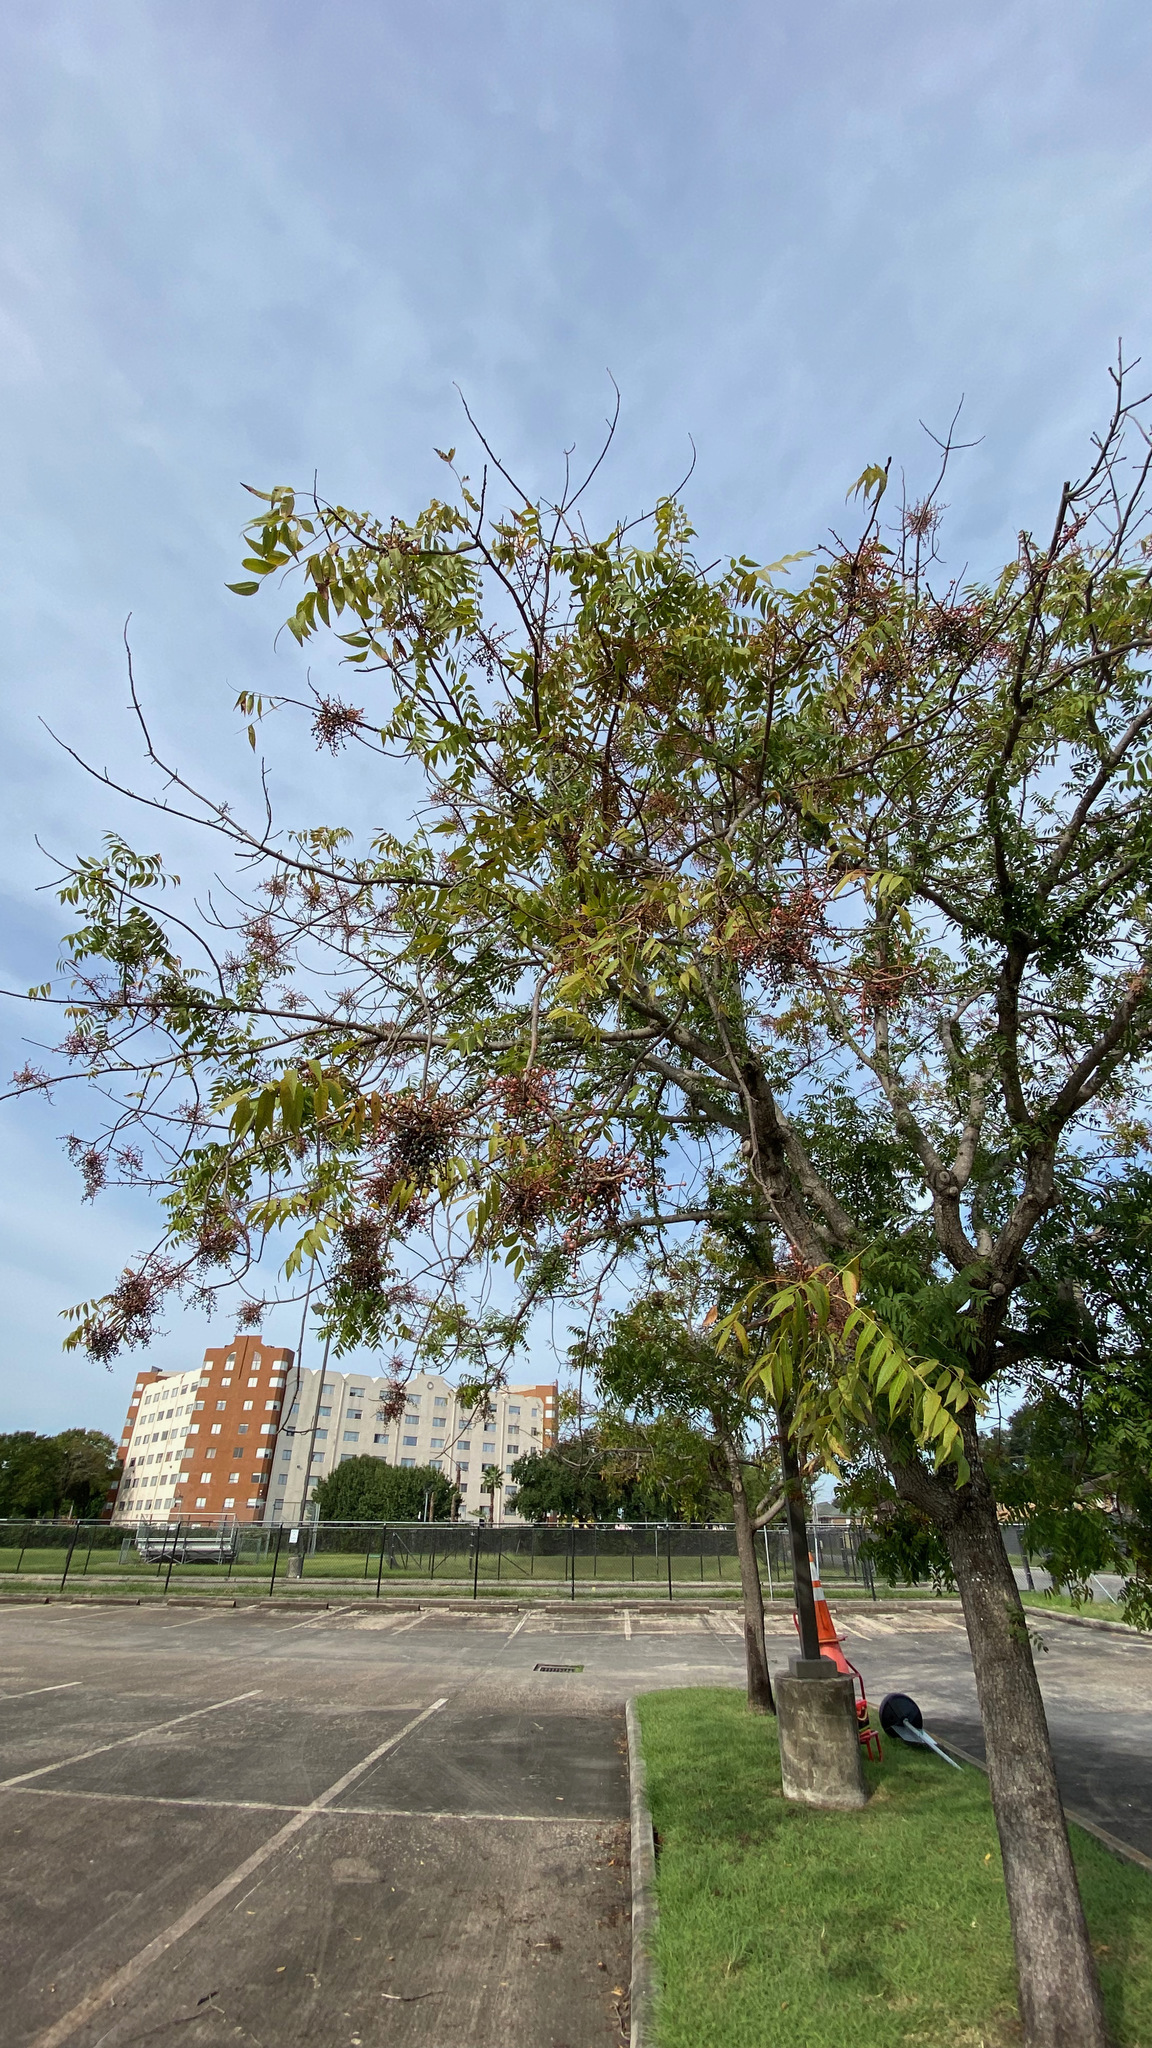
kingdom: Plantae
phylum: Tracheophyta
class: Magnoliopsida
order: Sapindales
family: Anacardiaceae
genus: Pistacia
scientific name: Pistacia chinensis
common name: Chinese pistache
